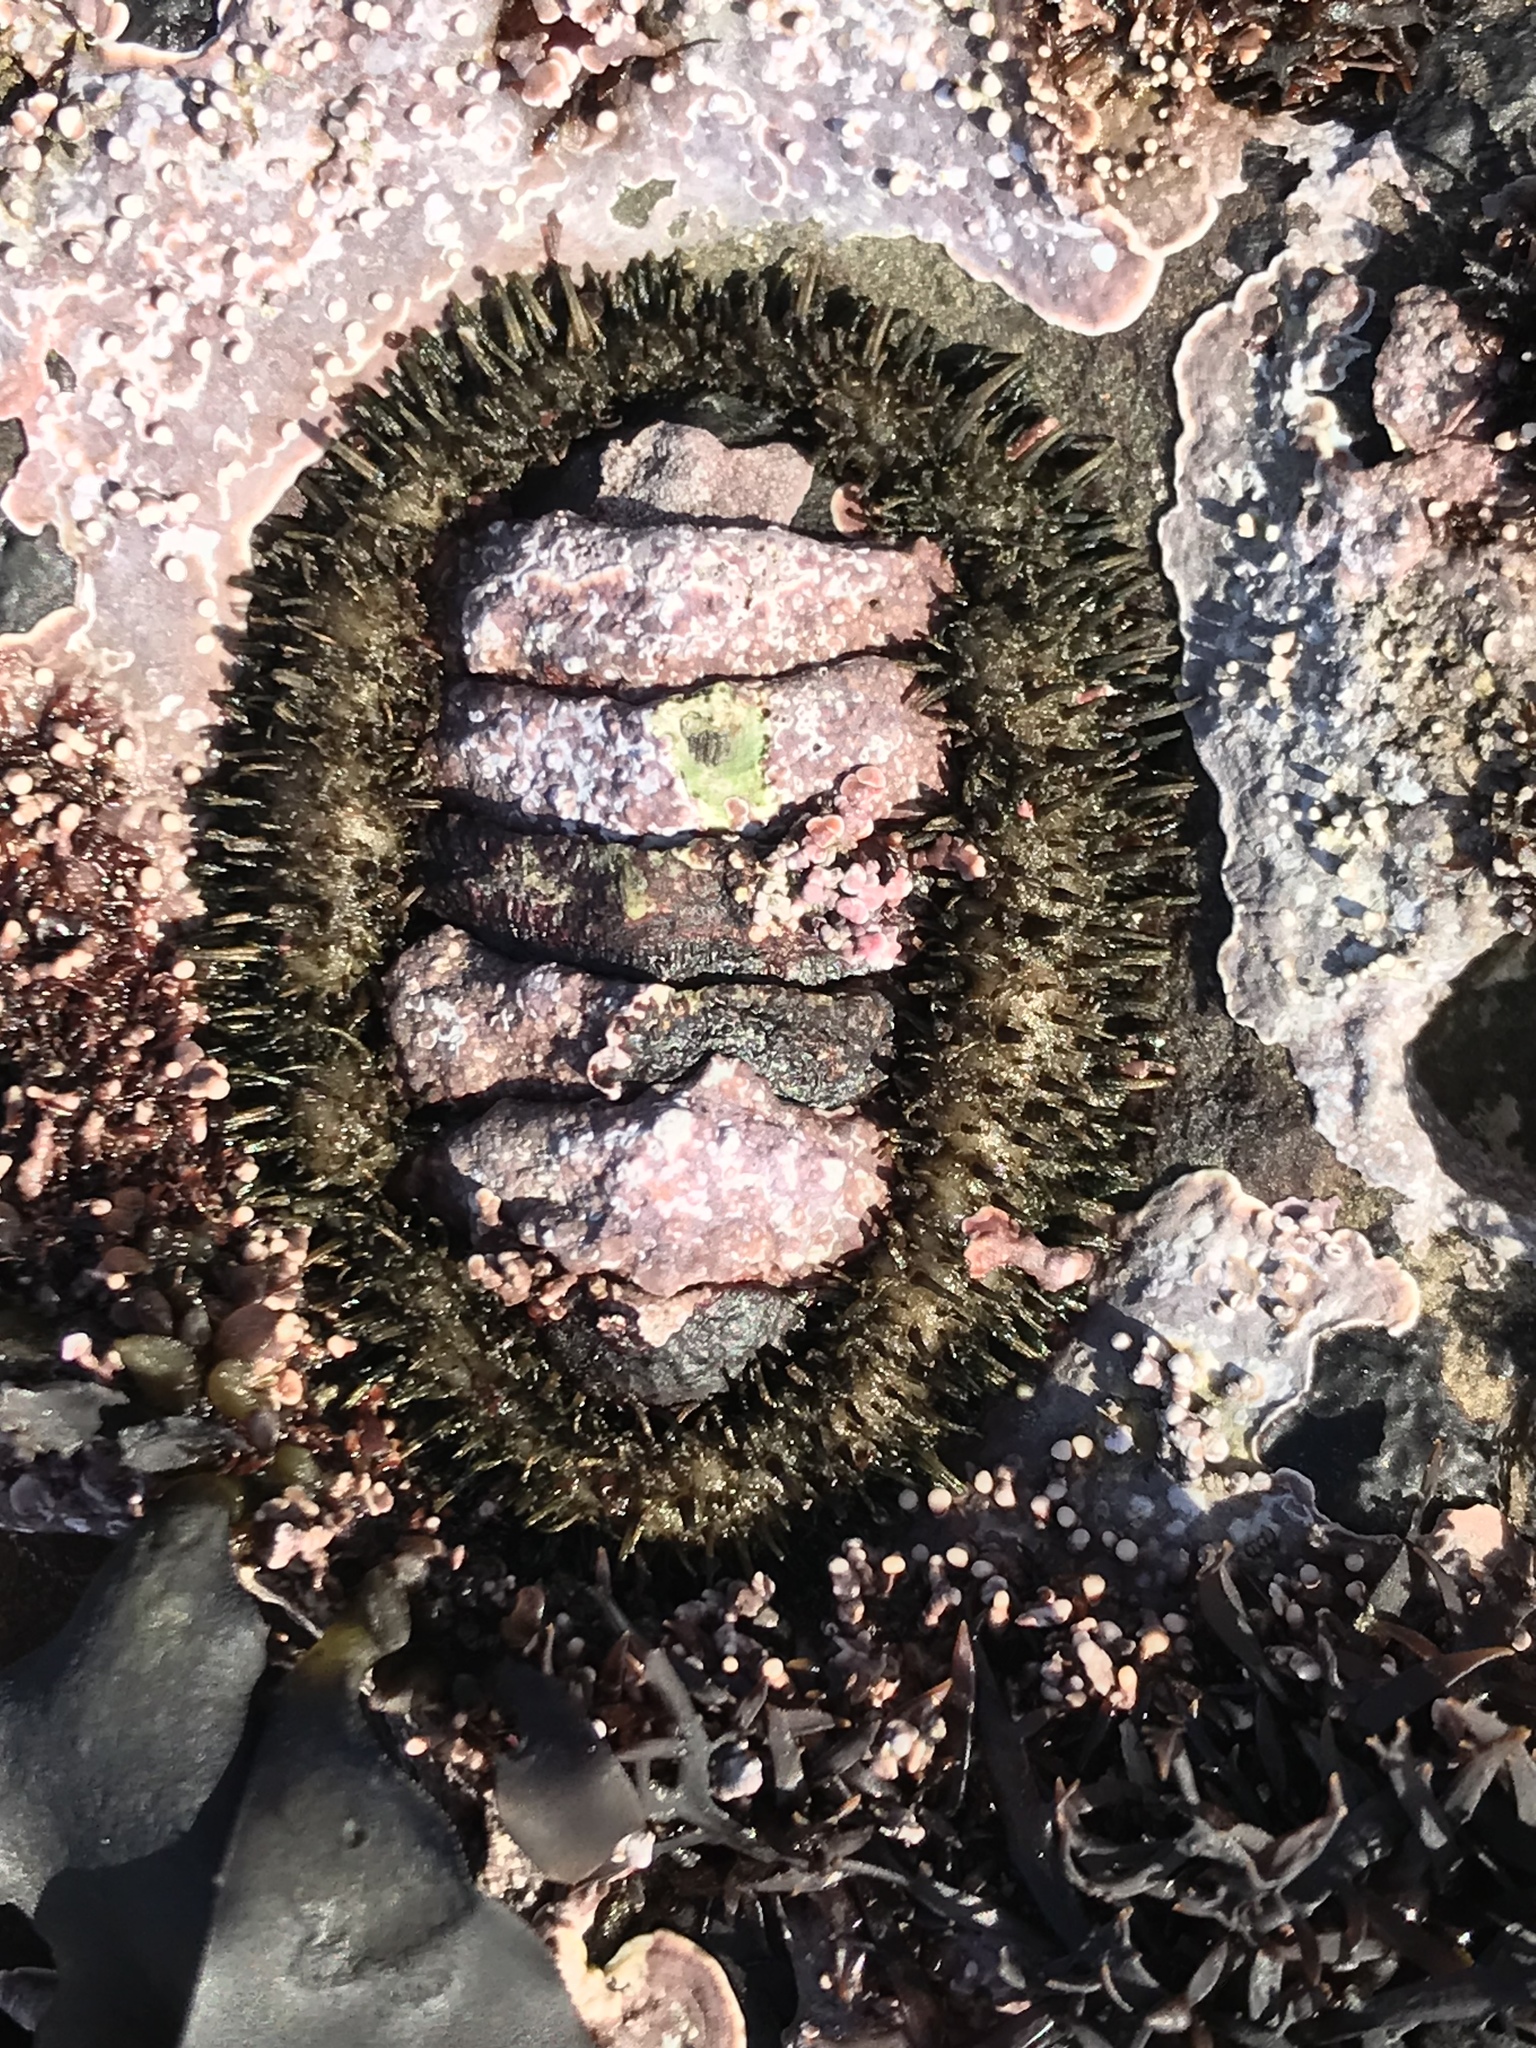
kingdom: Animalia
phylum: Mollusca
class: Polyplacophora
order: Chitonida
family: Mopaliidae
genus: Mopalia
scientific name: Mopalia muscosa
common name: Mossy chiton
